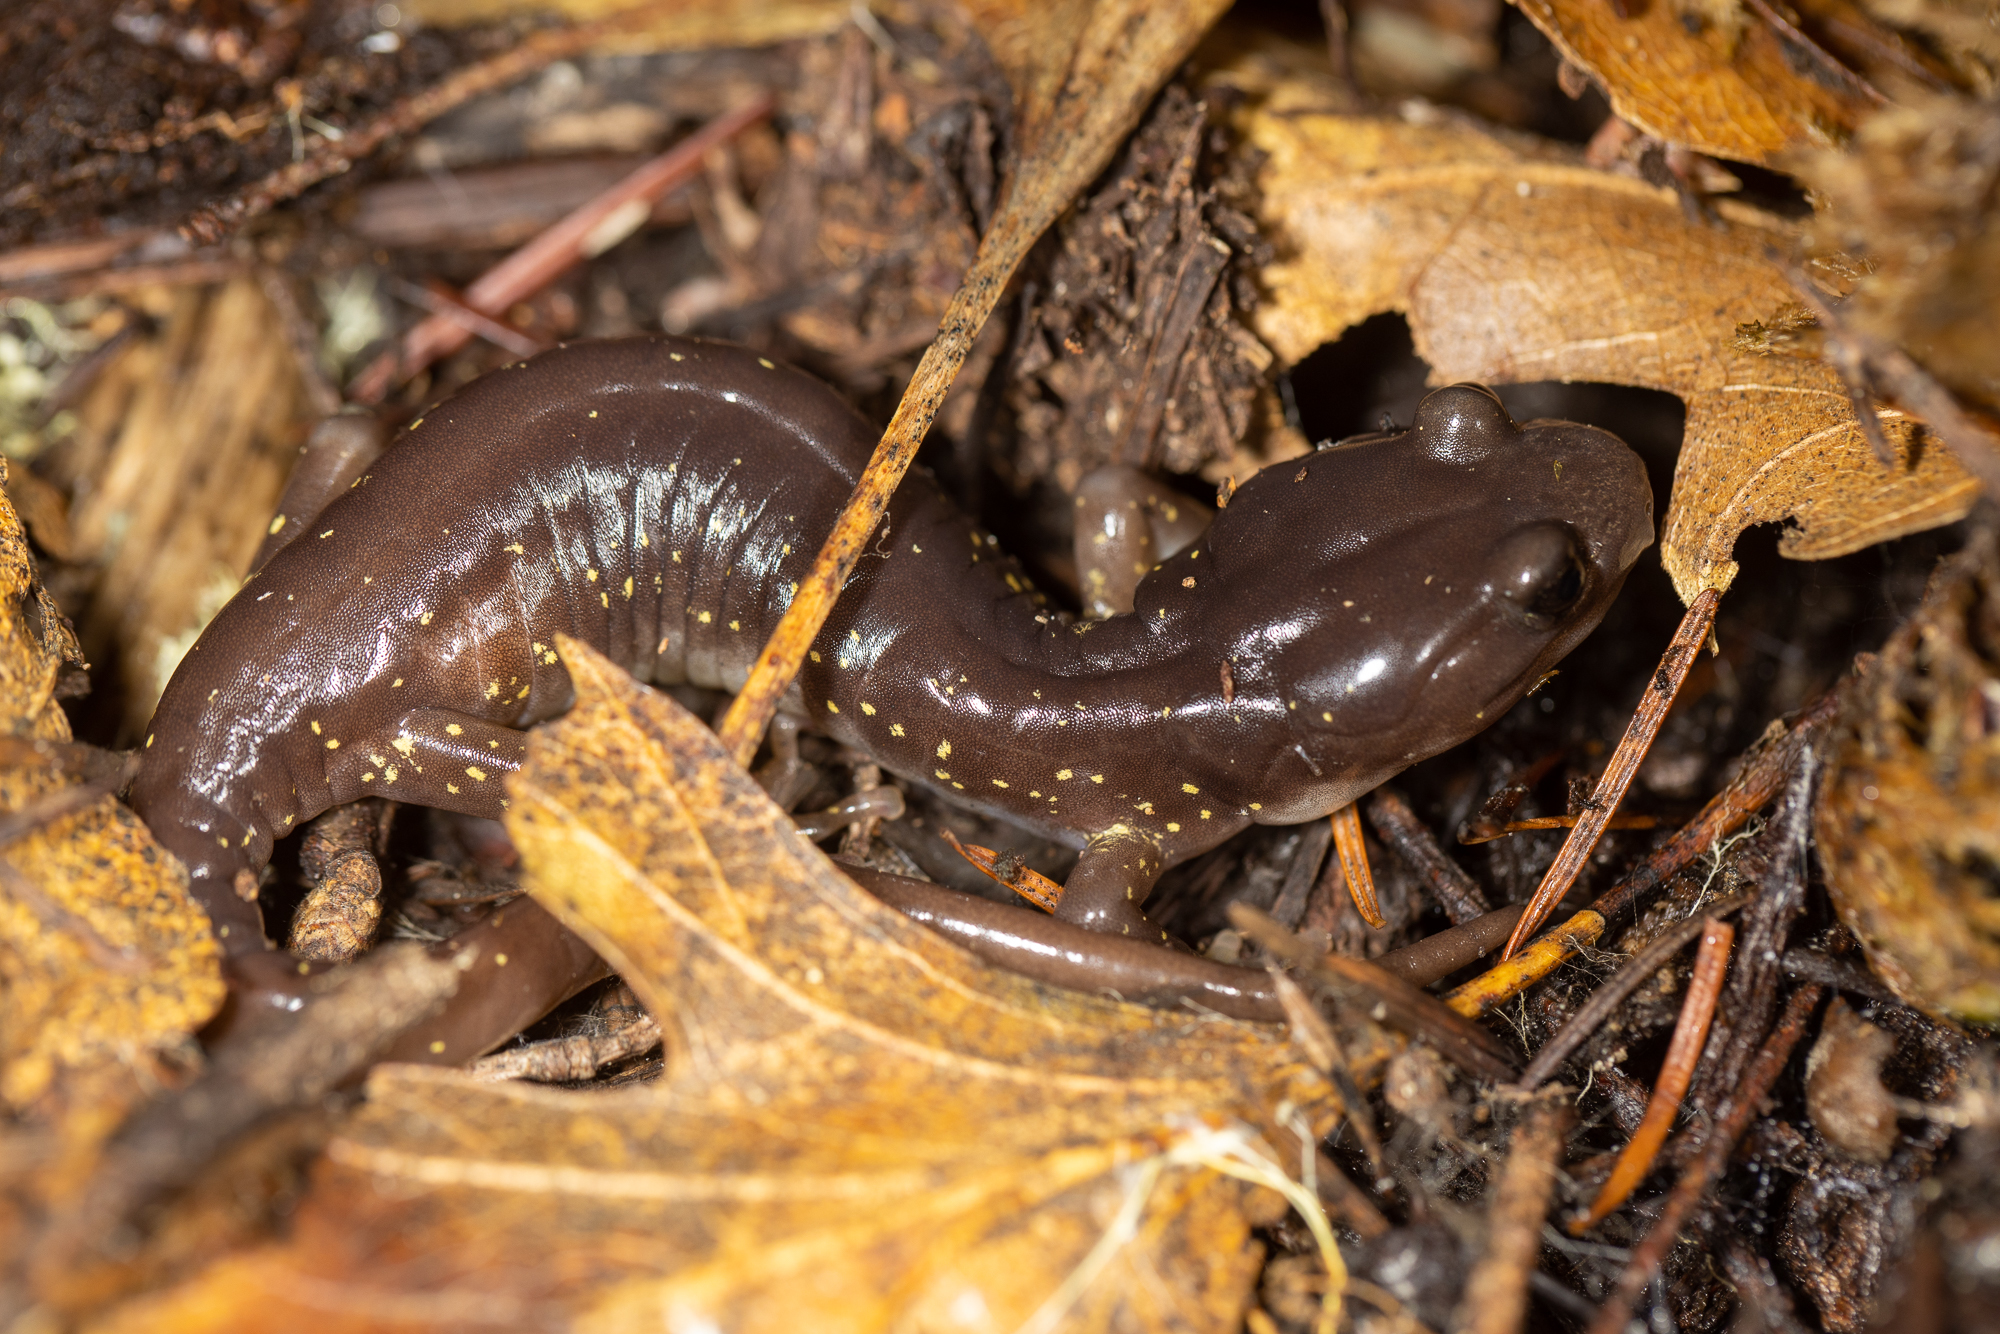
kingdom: Animalia
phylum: Chordata
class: Amphibia
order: Caudata
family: Plethodontidae
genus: Aneides
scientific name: Aneides lugubris
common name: Arboreal salamander
